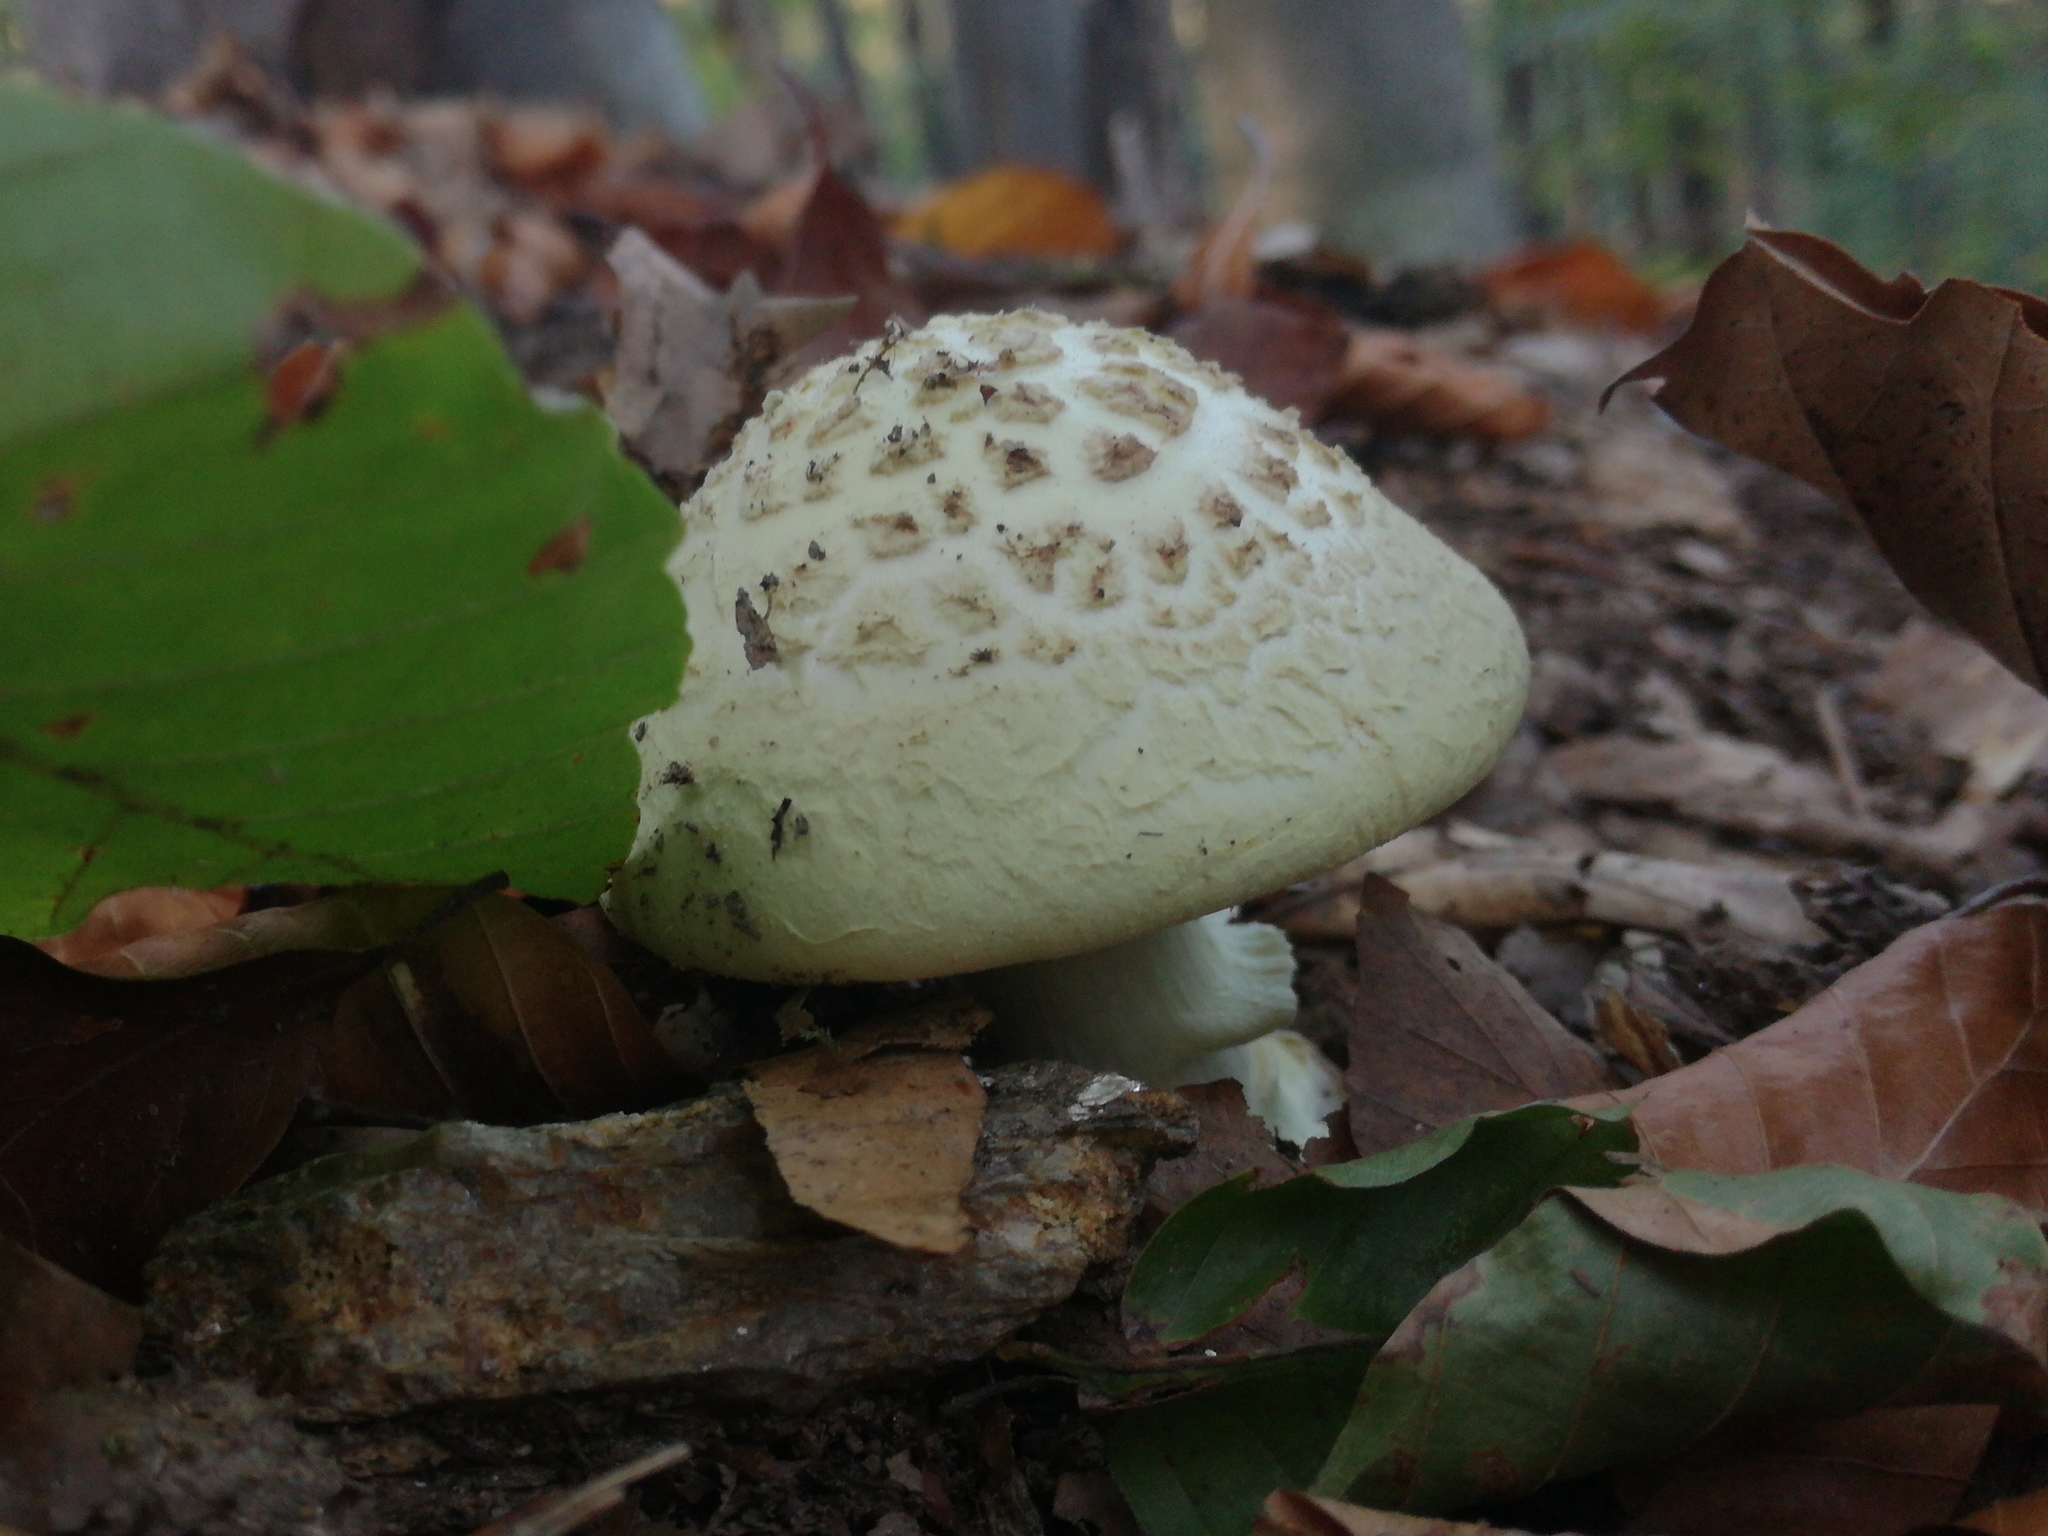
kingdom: Fungi
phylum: Basidiomycota
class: Agaricomycetes
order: Agaricales
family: Amanitaceae
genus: Amanita
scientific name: Amanita citrina
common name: False death-cap
